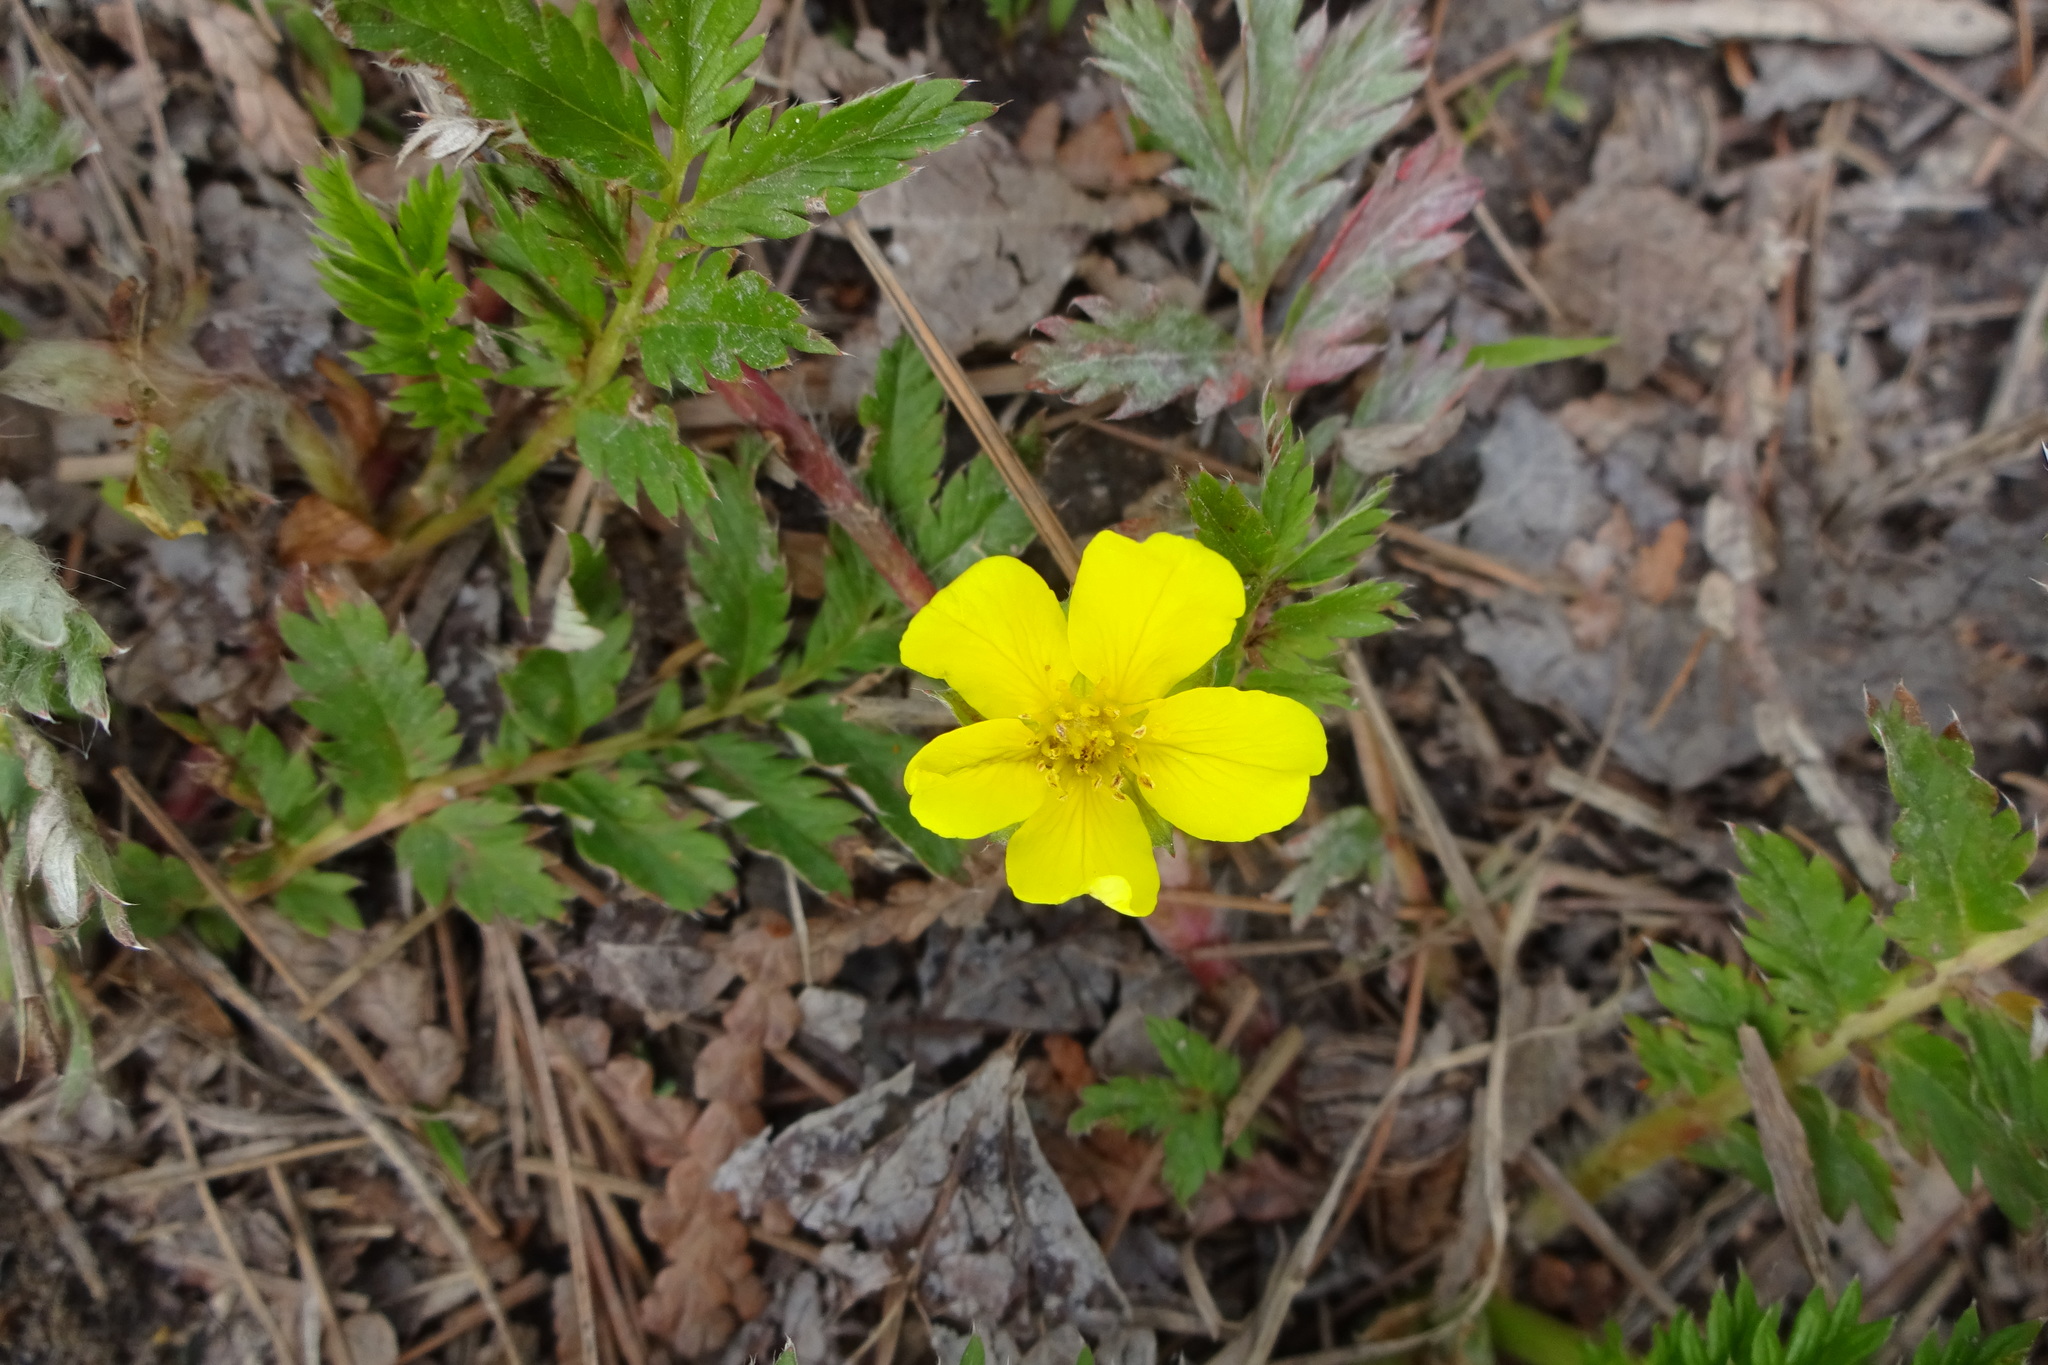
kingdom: Plantae
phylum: Tracheophyta
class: Magnoliopsida
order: Rosales
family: Rosaceae
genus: Argentina
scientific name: Argentina anserina
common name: Common silverweed
